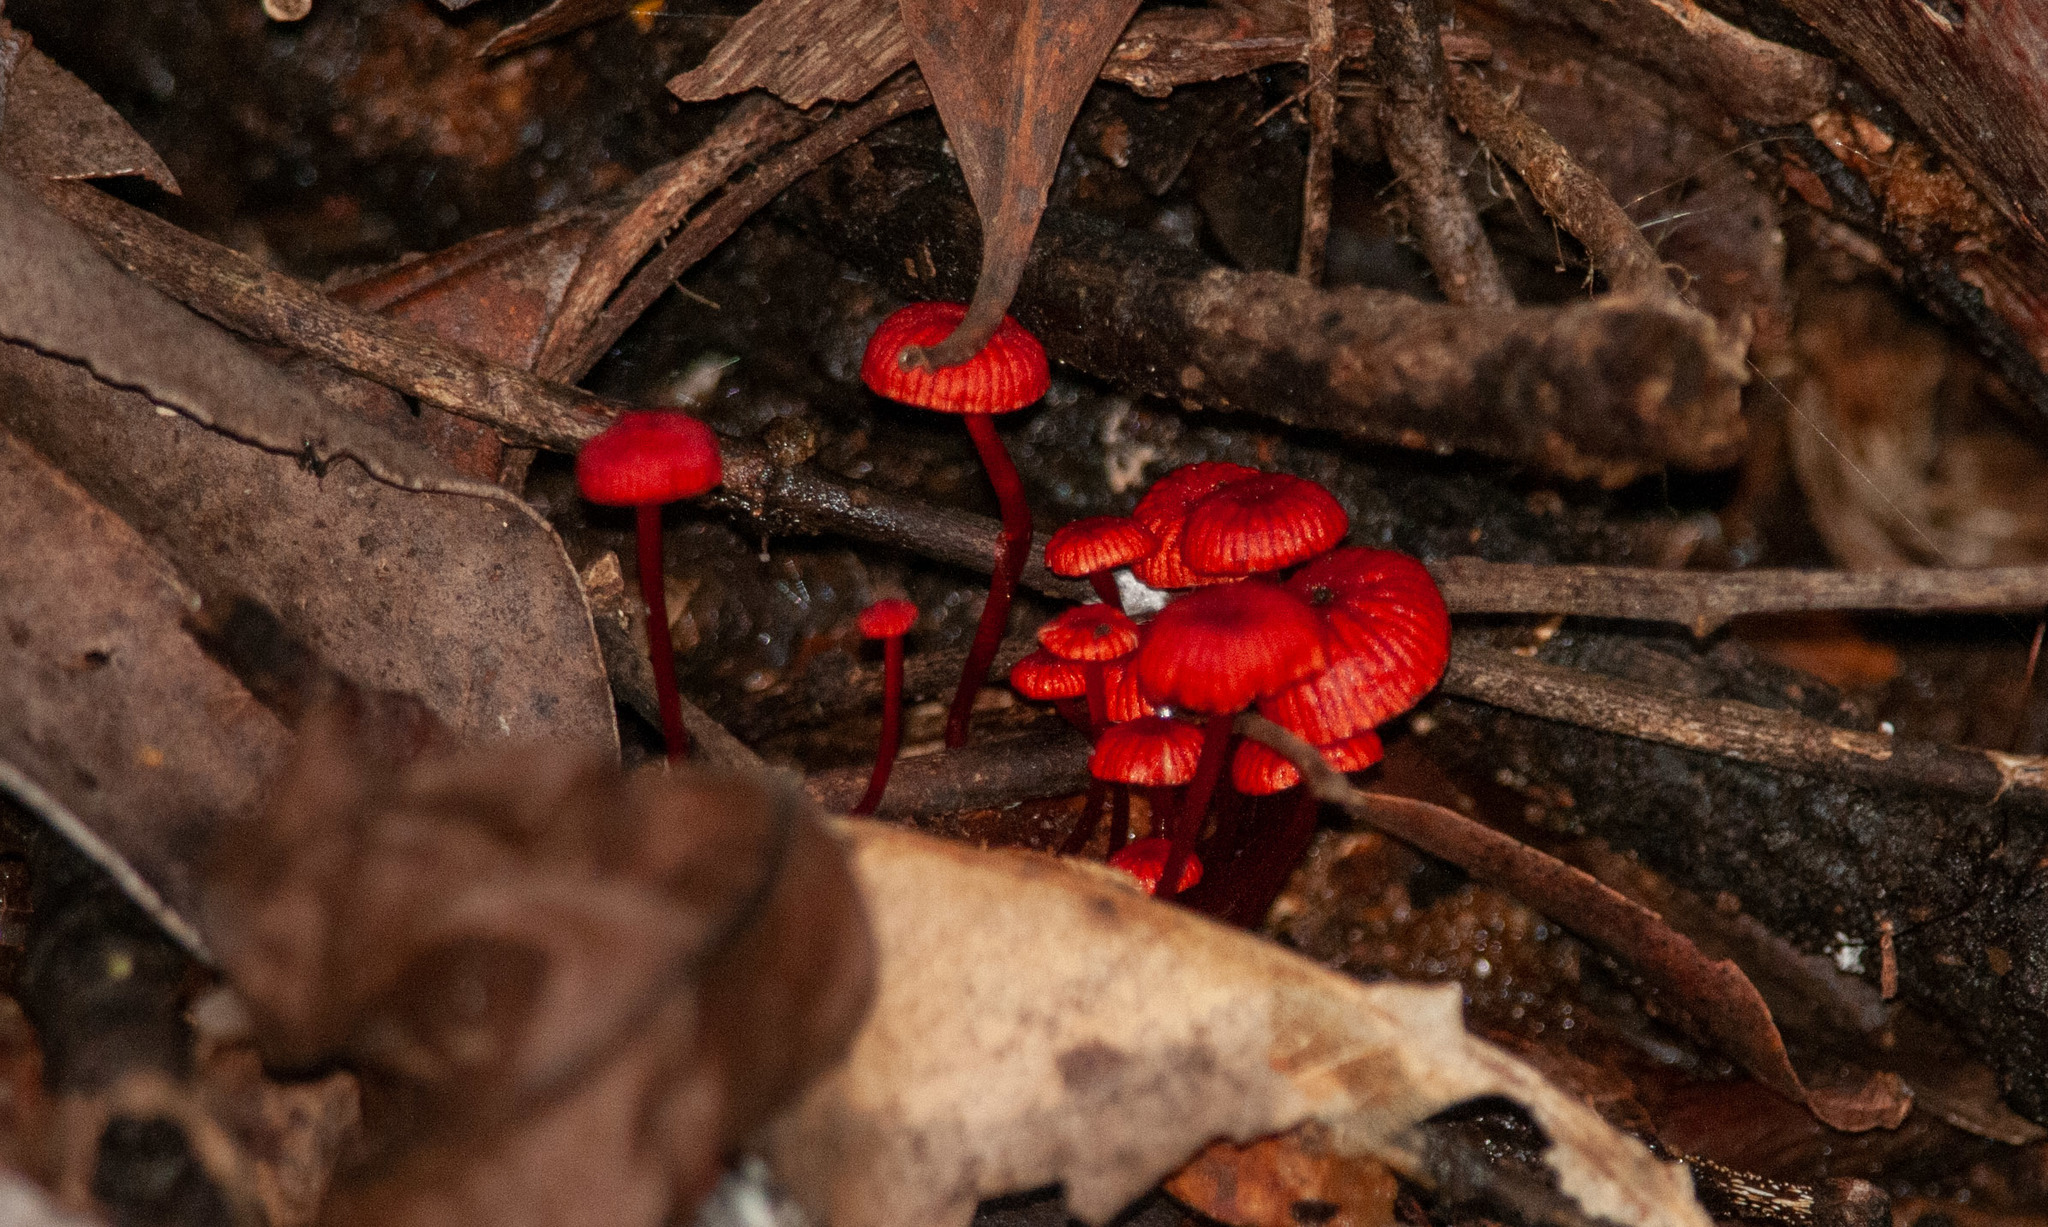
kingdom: Fungi
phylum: Basidiomycota
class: Agaricomycetes
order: Agaricales
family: Mycenaceae
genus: Cruentomycena
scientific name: Cruentomycena viscidocruenta
